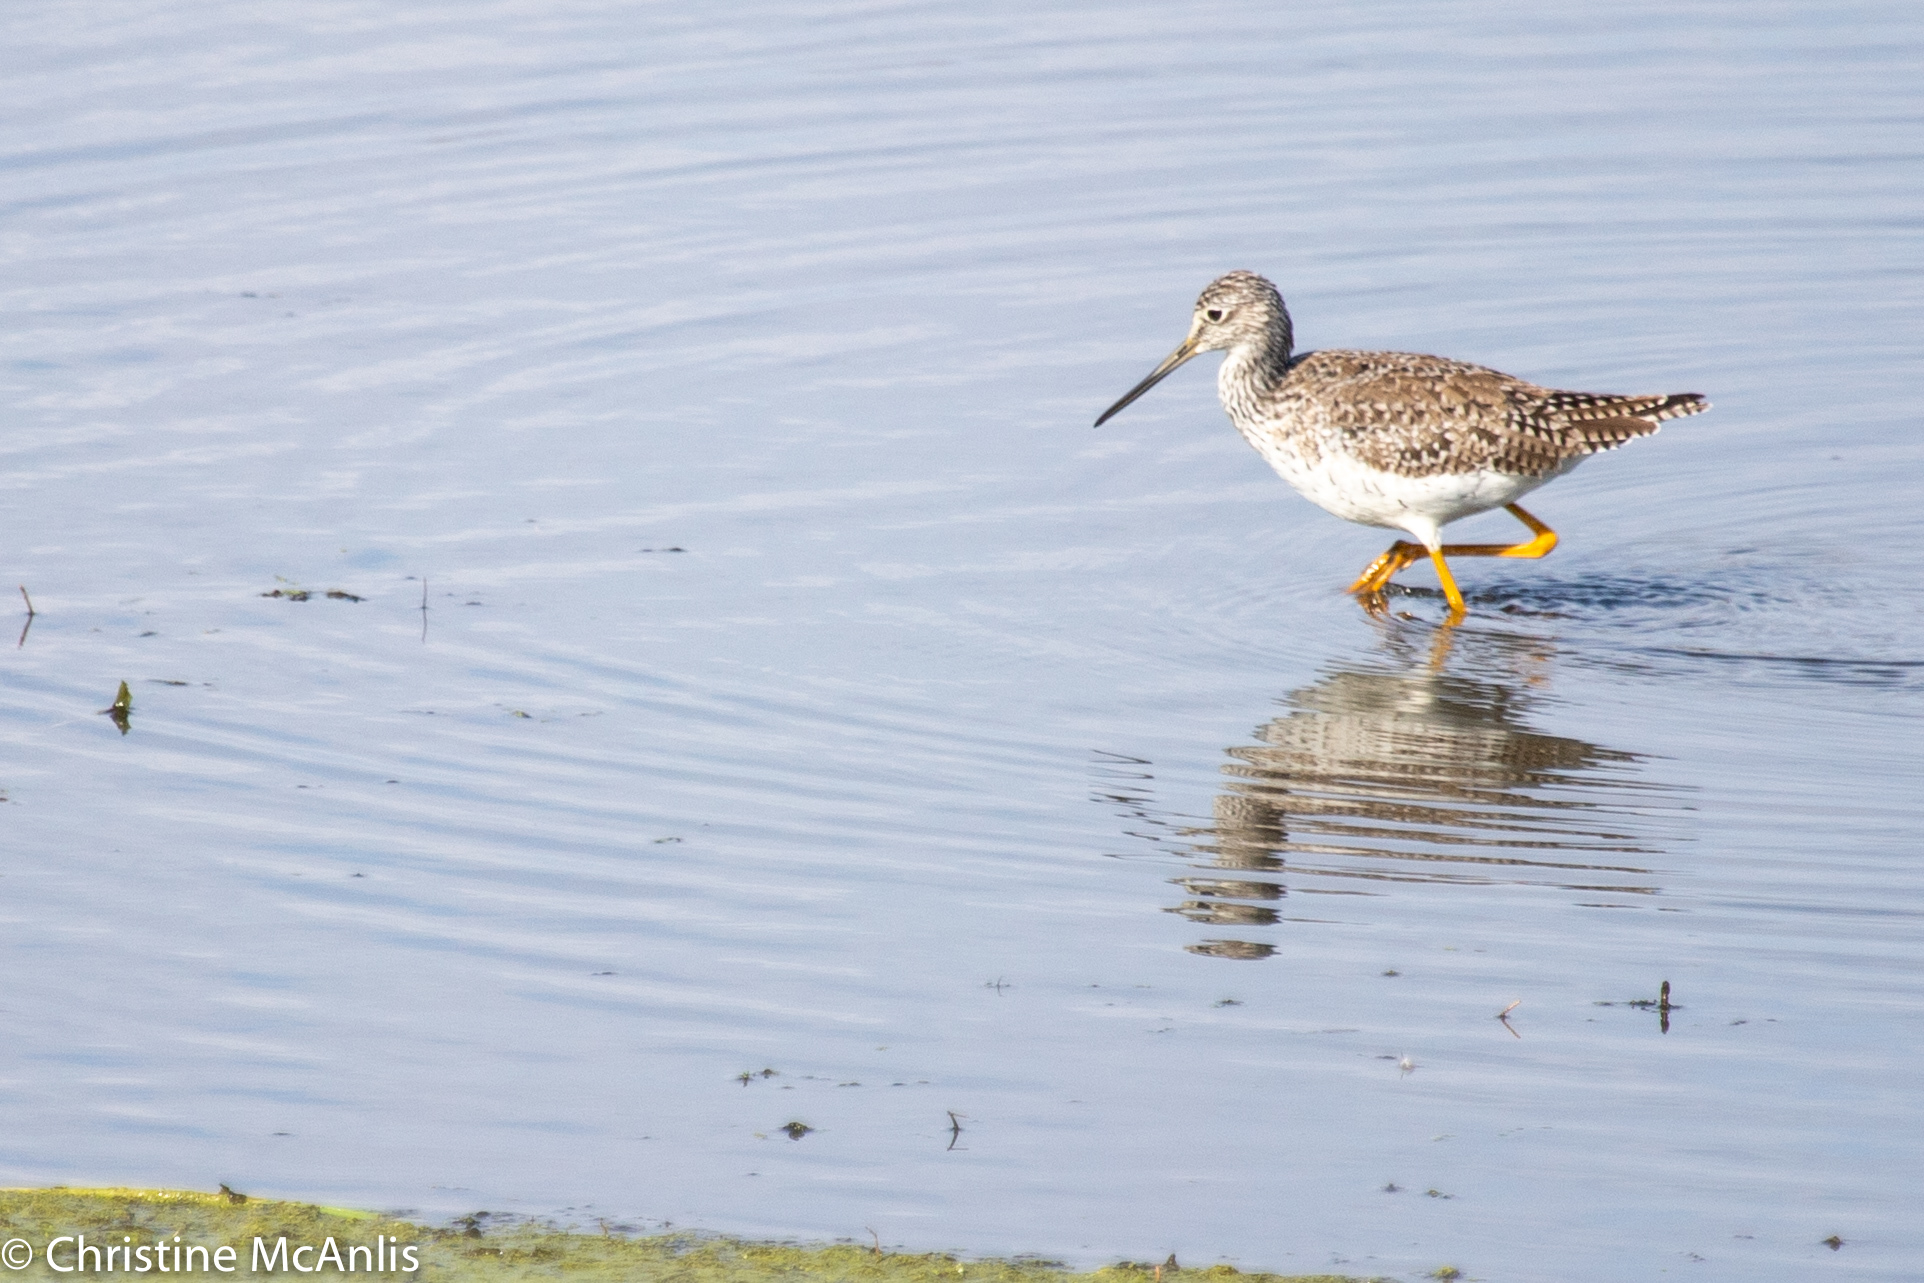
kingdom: Animalia
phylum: Chordata
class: Aves
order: Charadriiformes
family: Scolopacidae
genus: Tringa
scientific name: Tringa melanoleuca
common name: Greater yellowlegs
